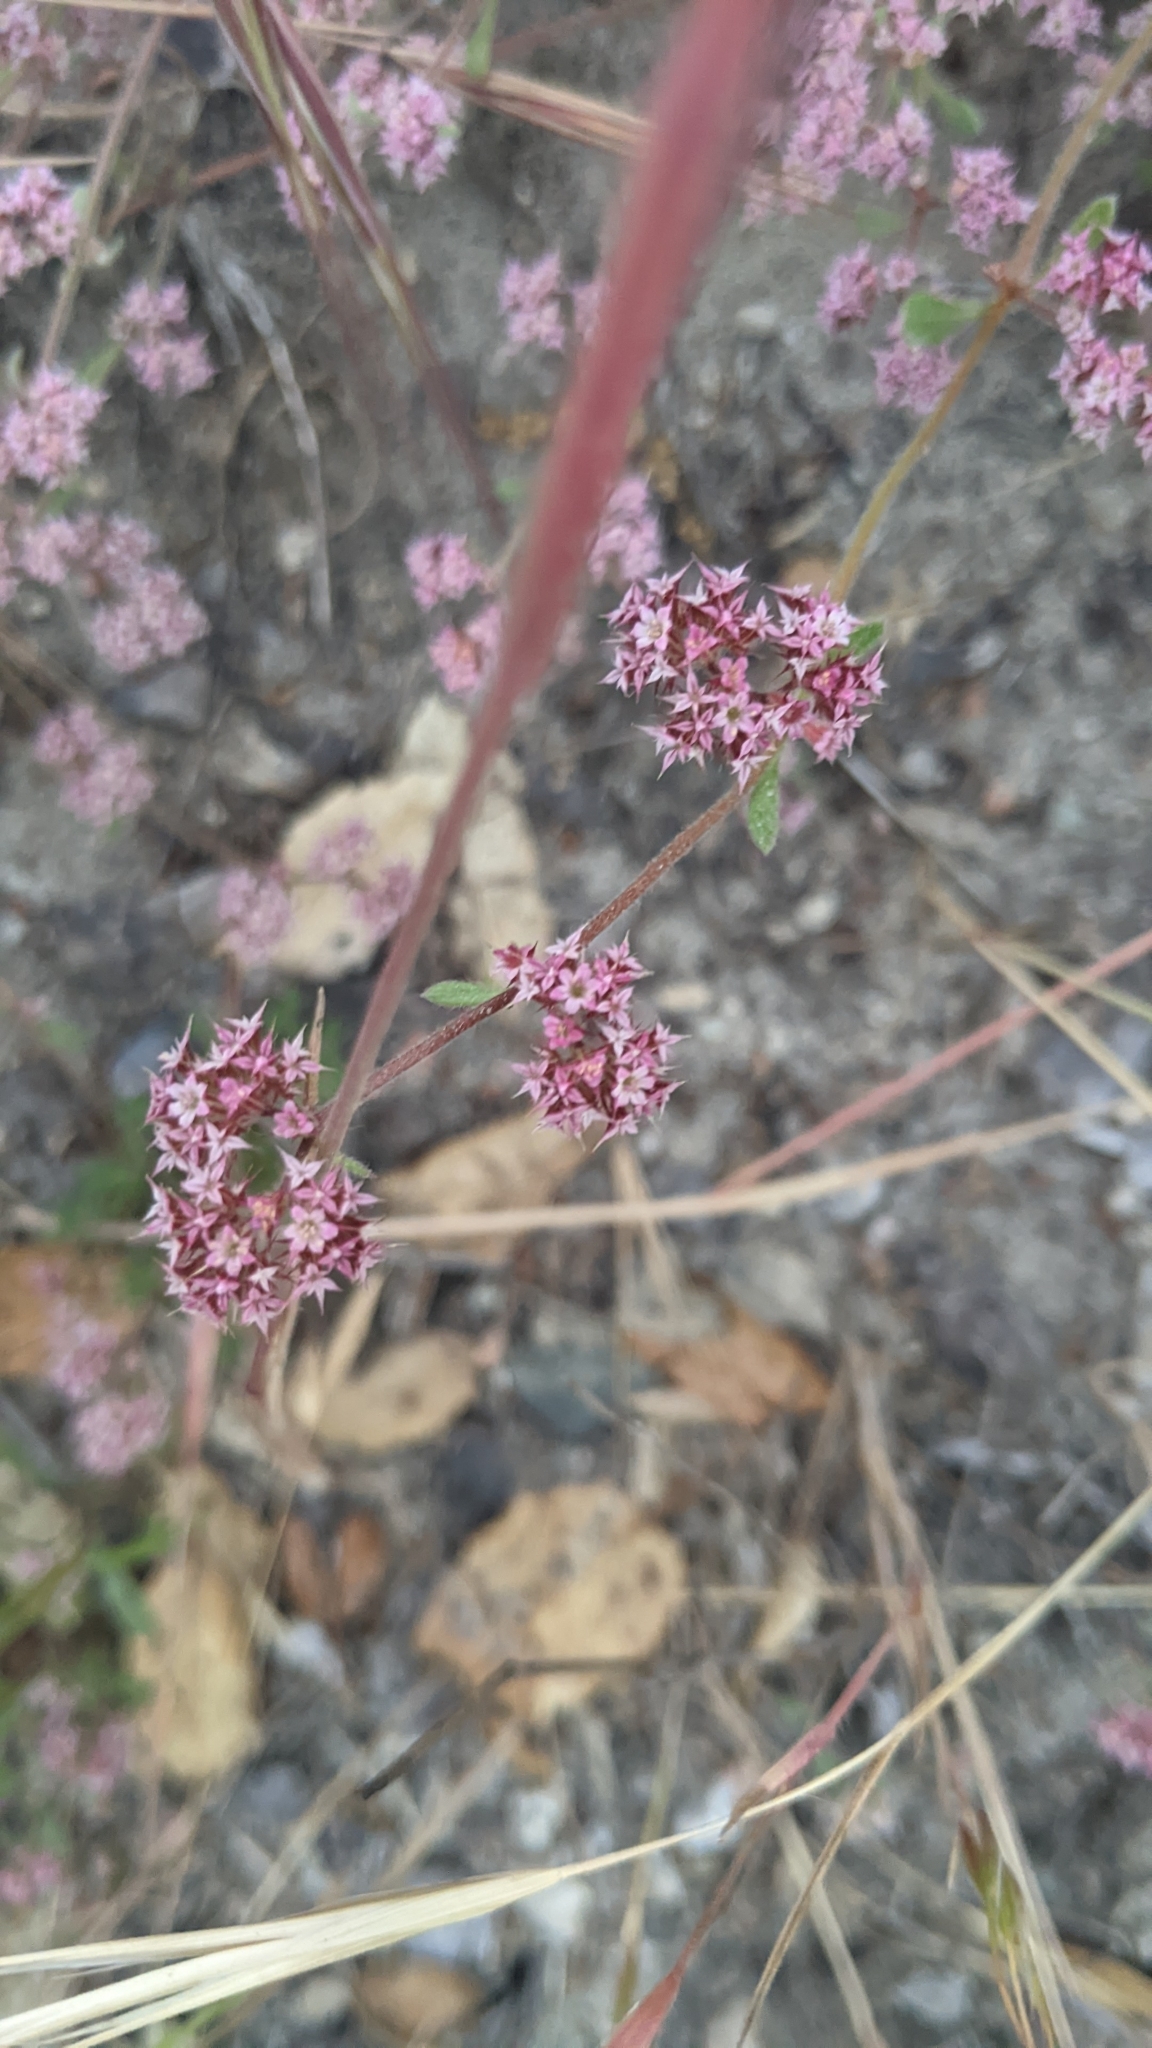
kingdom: Plantae
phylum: Tracheophyta
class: Magnoliopsida
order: Caryophyllales
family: Polygonaceae
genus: Chorizanthe
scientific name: Chorizanthe pungens
